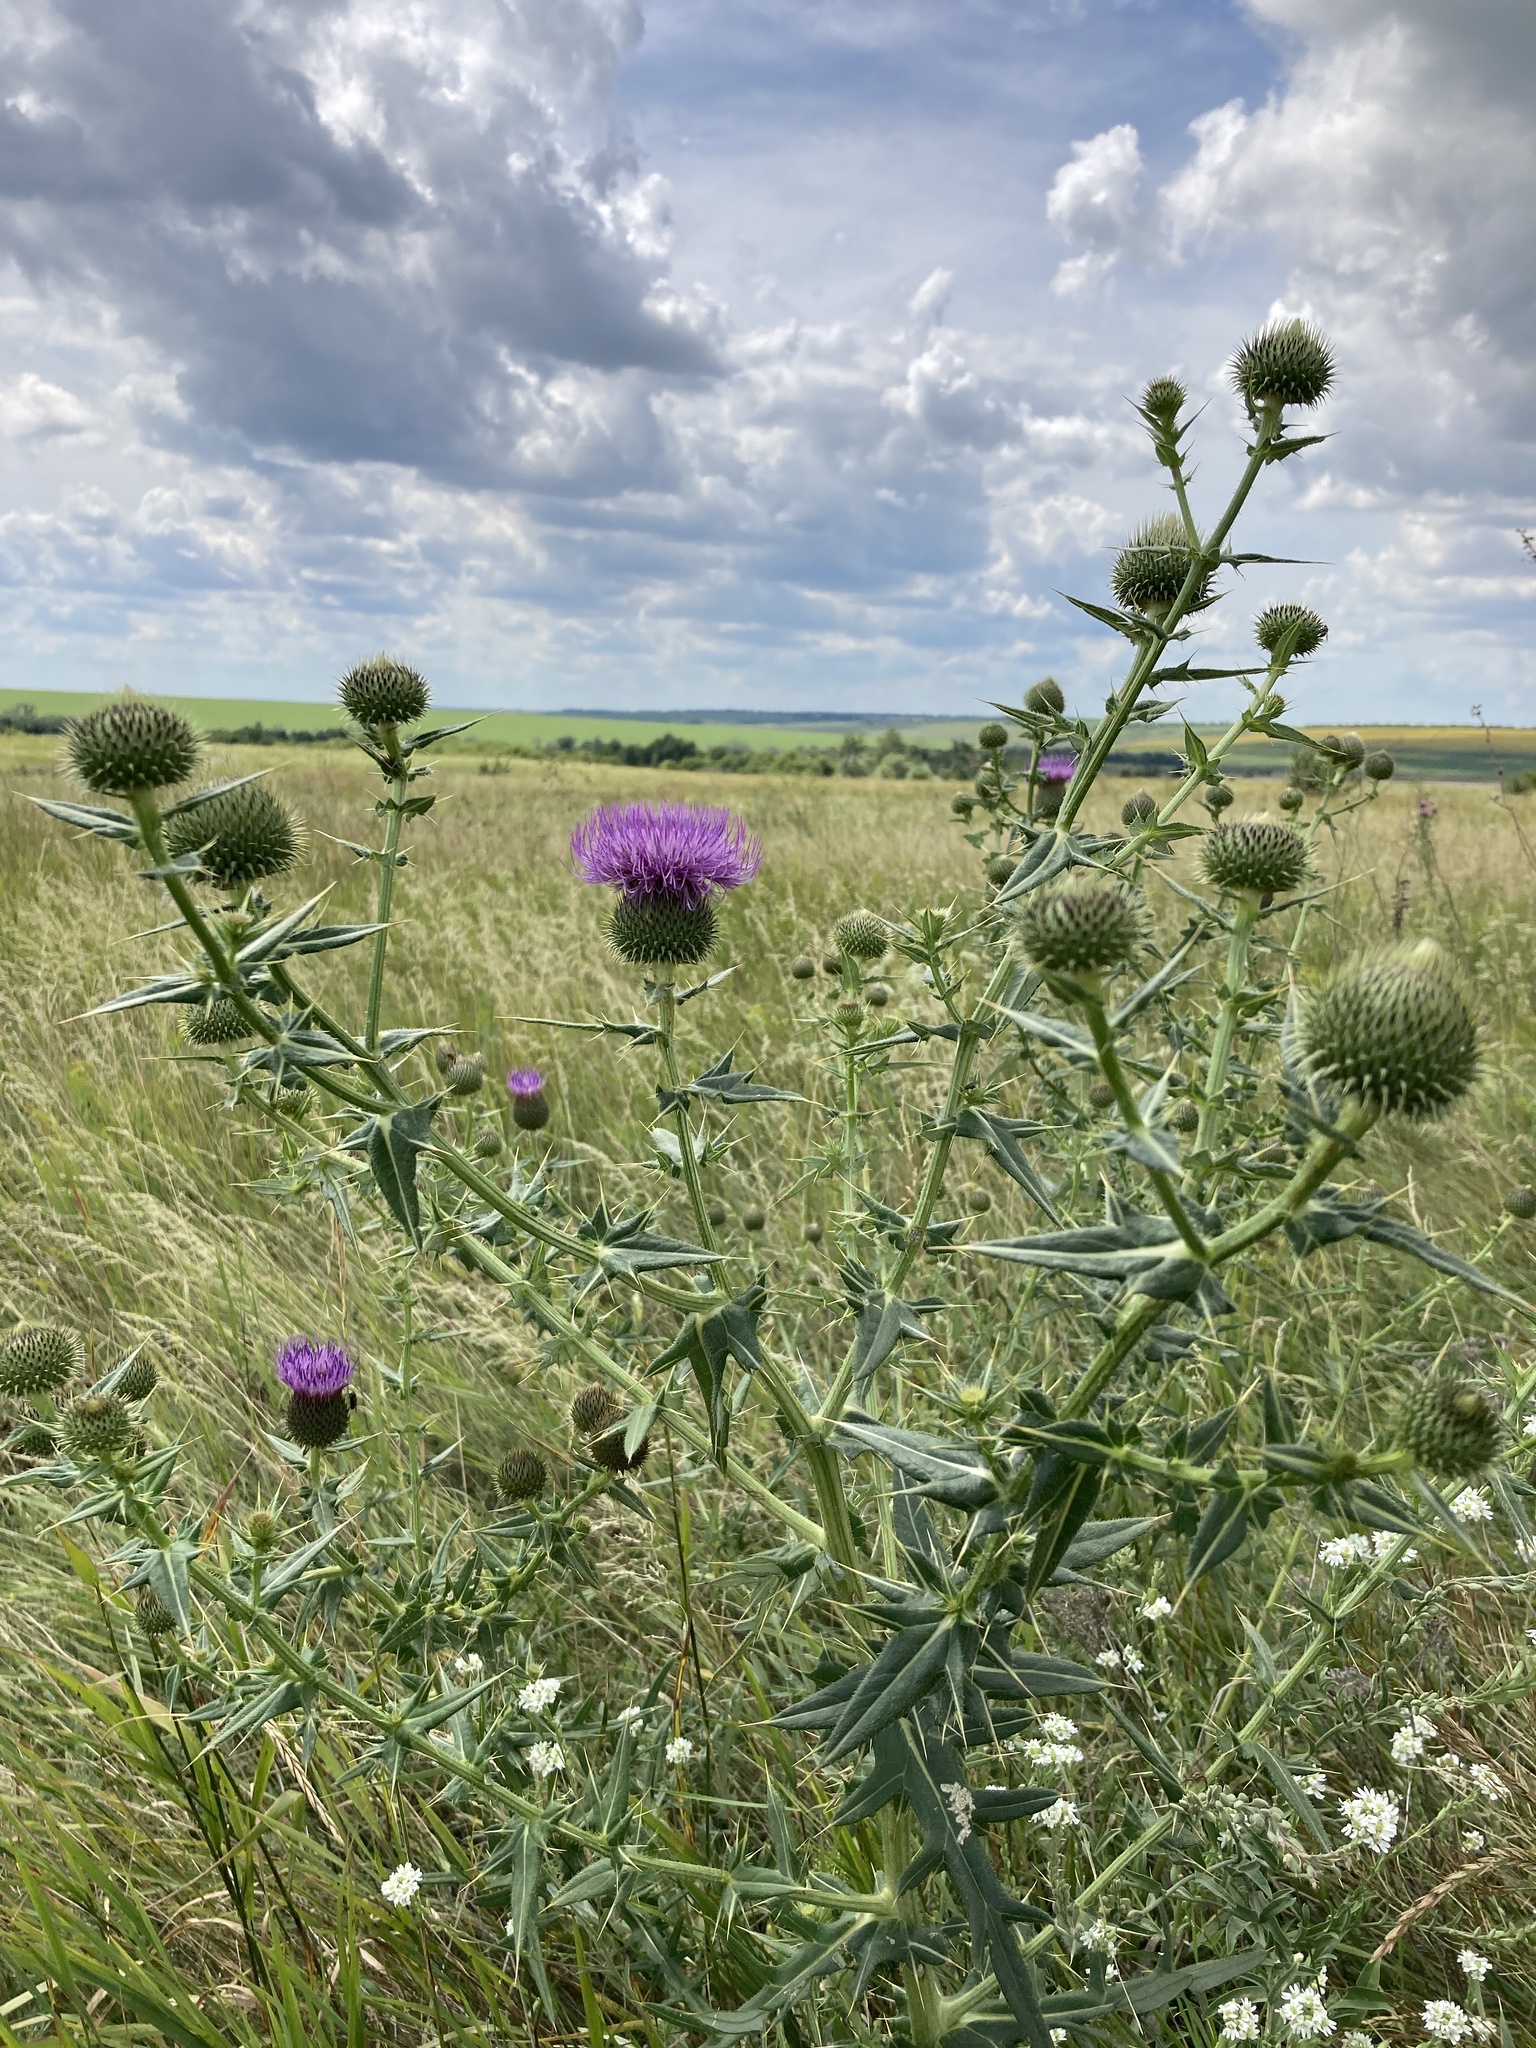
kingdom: Plantae
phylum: Tracheophyta
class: Magnoliopsida
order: Asterales
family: Asteraceae
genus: Cirsium
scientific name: Cirsium serrulatum
